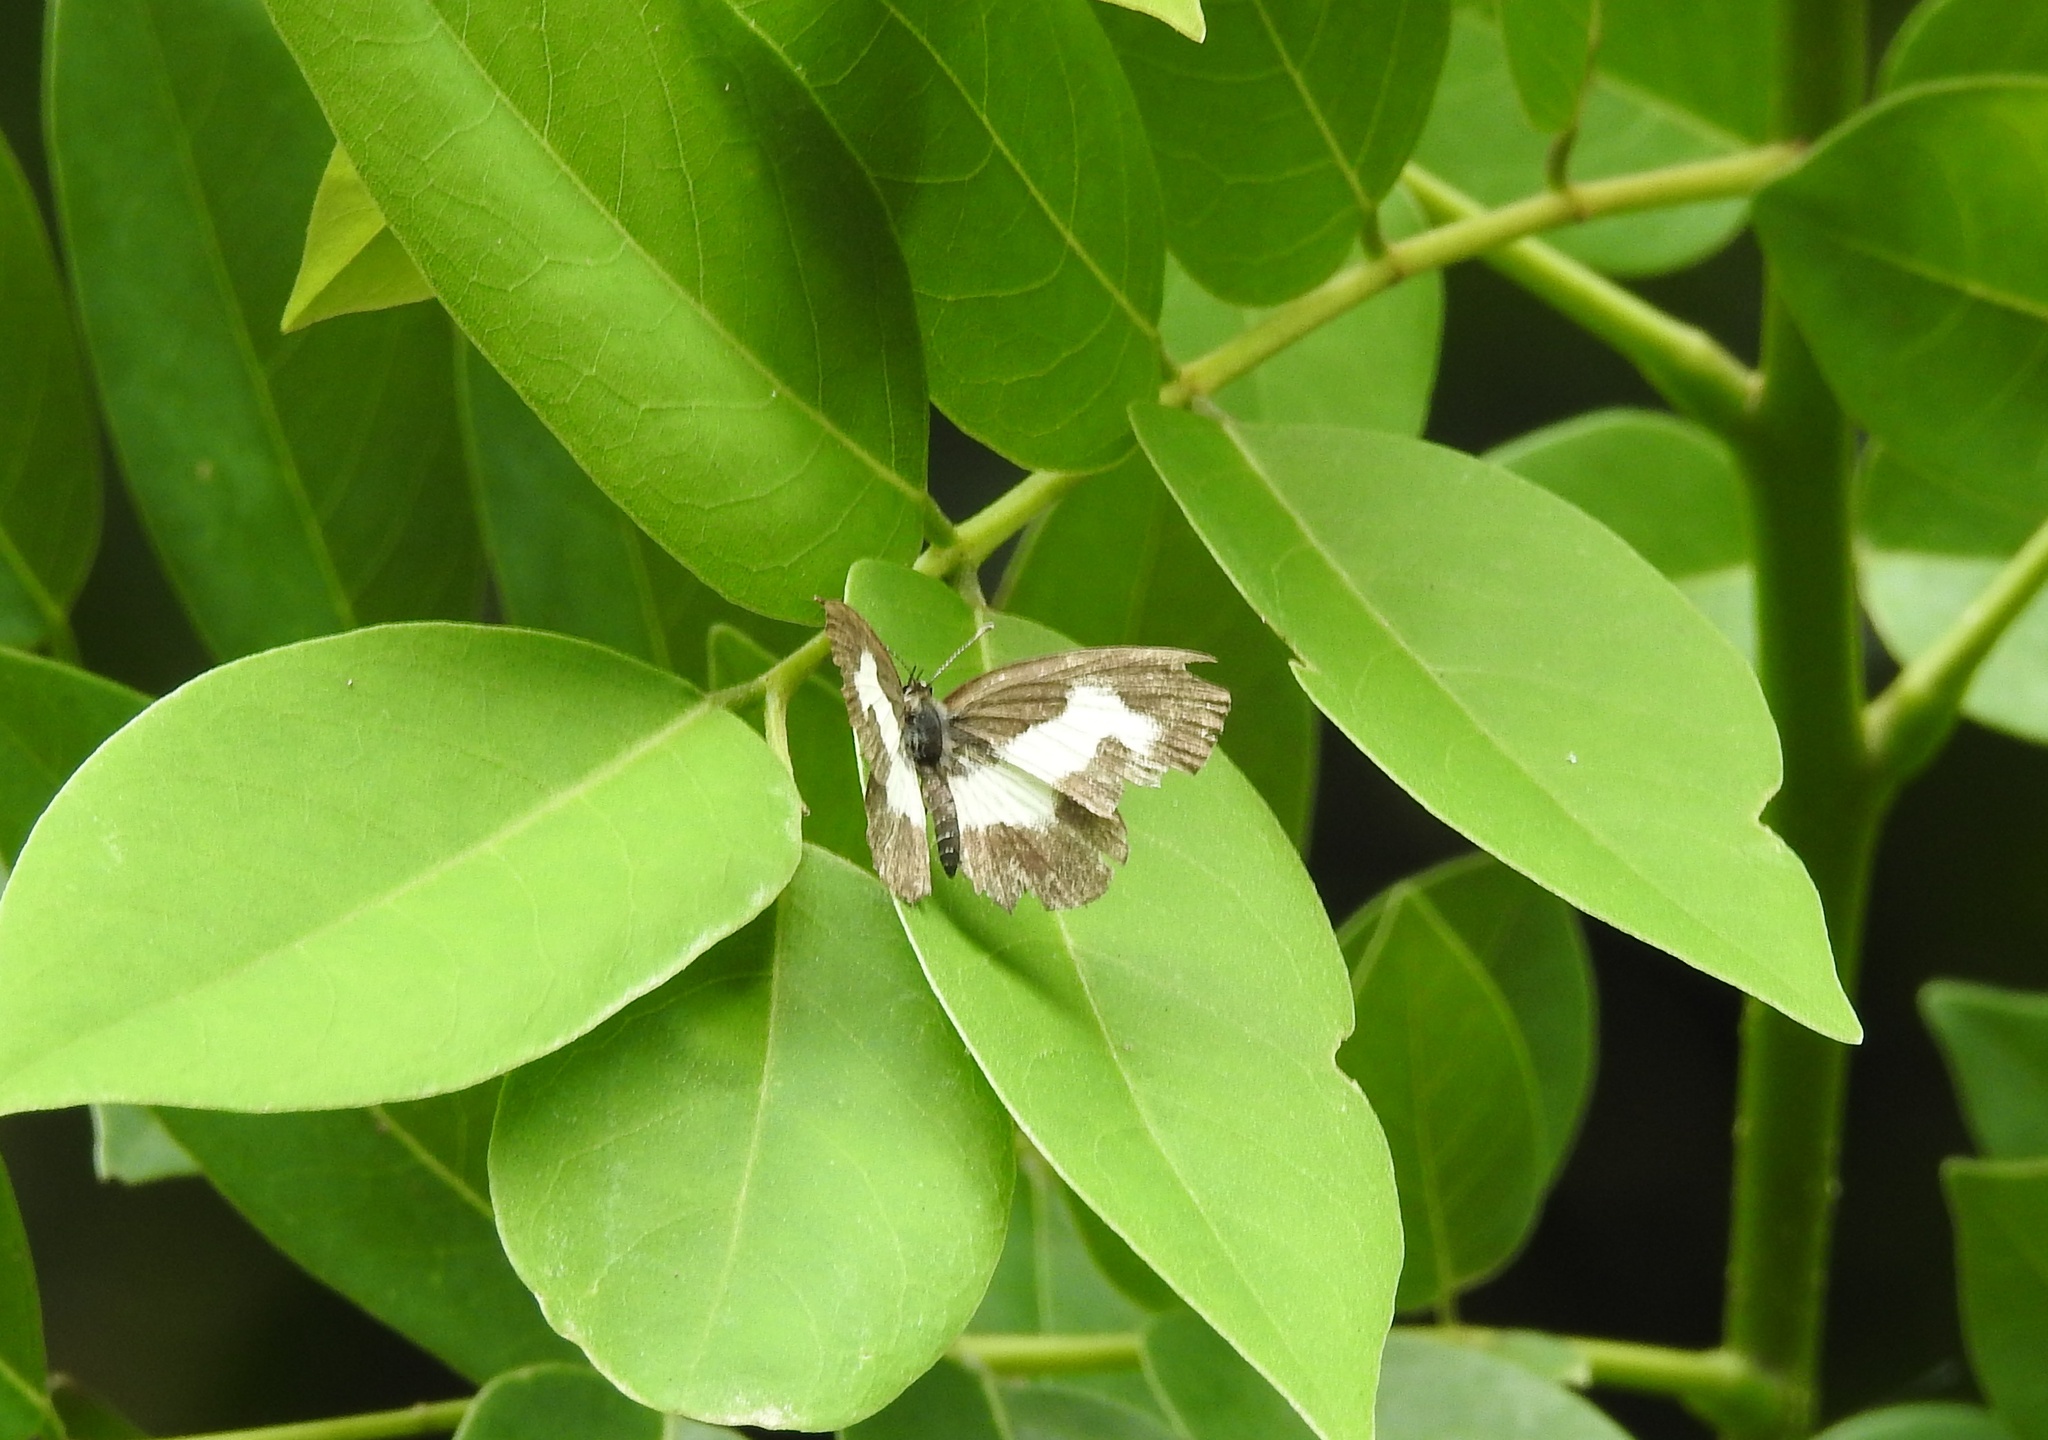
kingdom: Animalia
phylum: Arthropoda
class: Insecta
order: Lepidoptera
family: Lycaenidae
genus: Caleta
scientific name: Caleta decidia
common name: Angled pierrot
